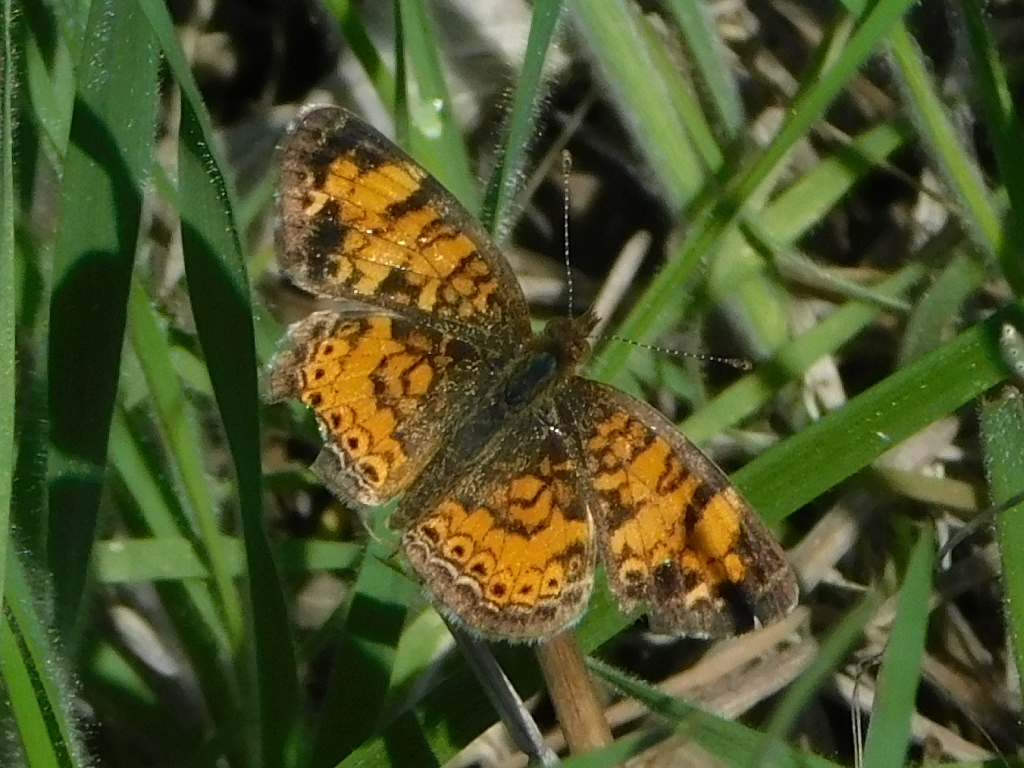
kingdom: Animalia
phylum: Arthropoda
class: Insecta
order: Lepidoptera
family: Nymphalidae
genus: Phyciodes
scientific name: Phyciodes tharos
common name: Pearl crescent
